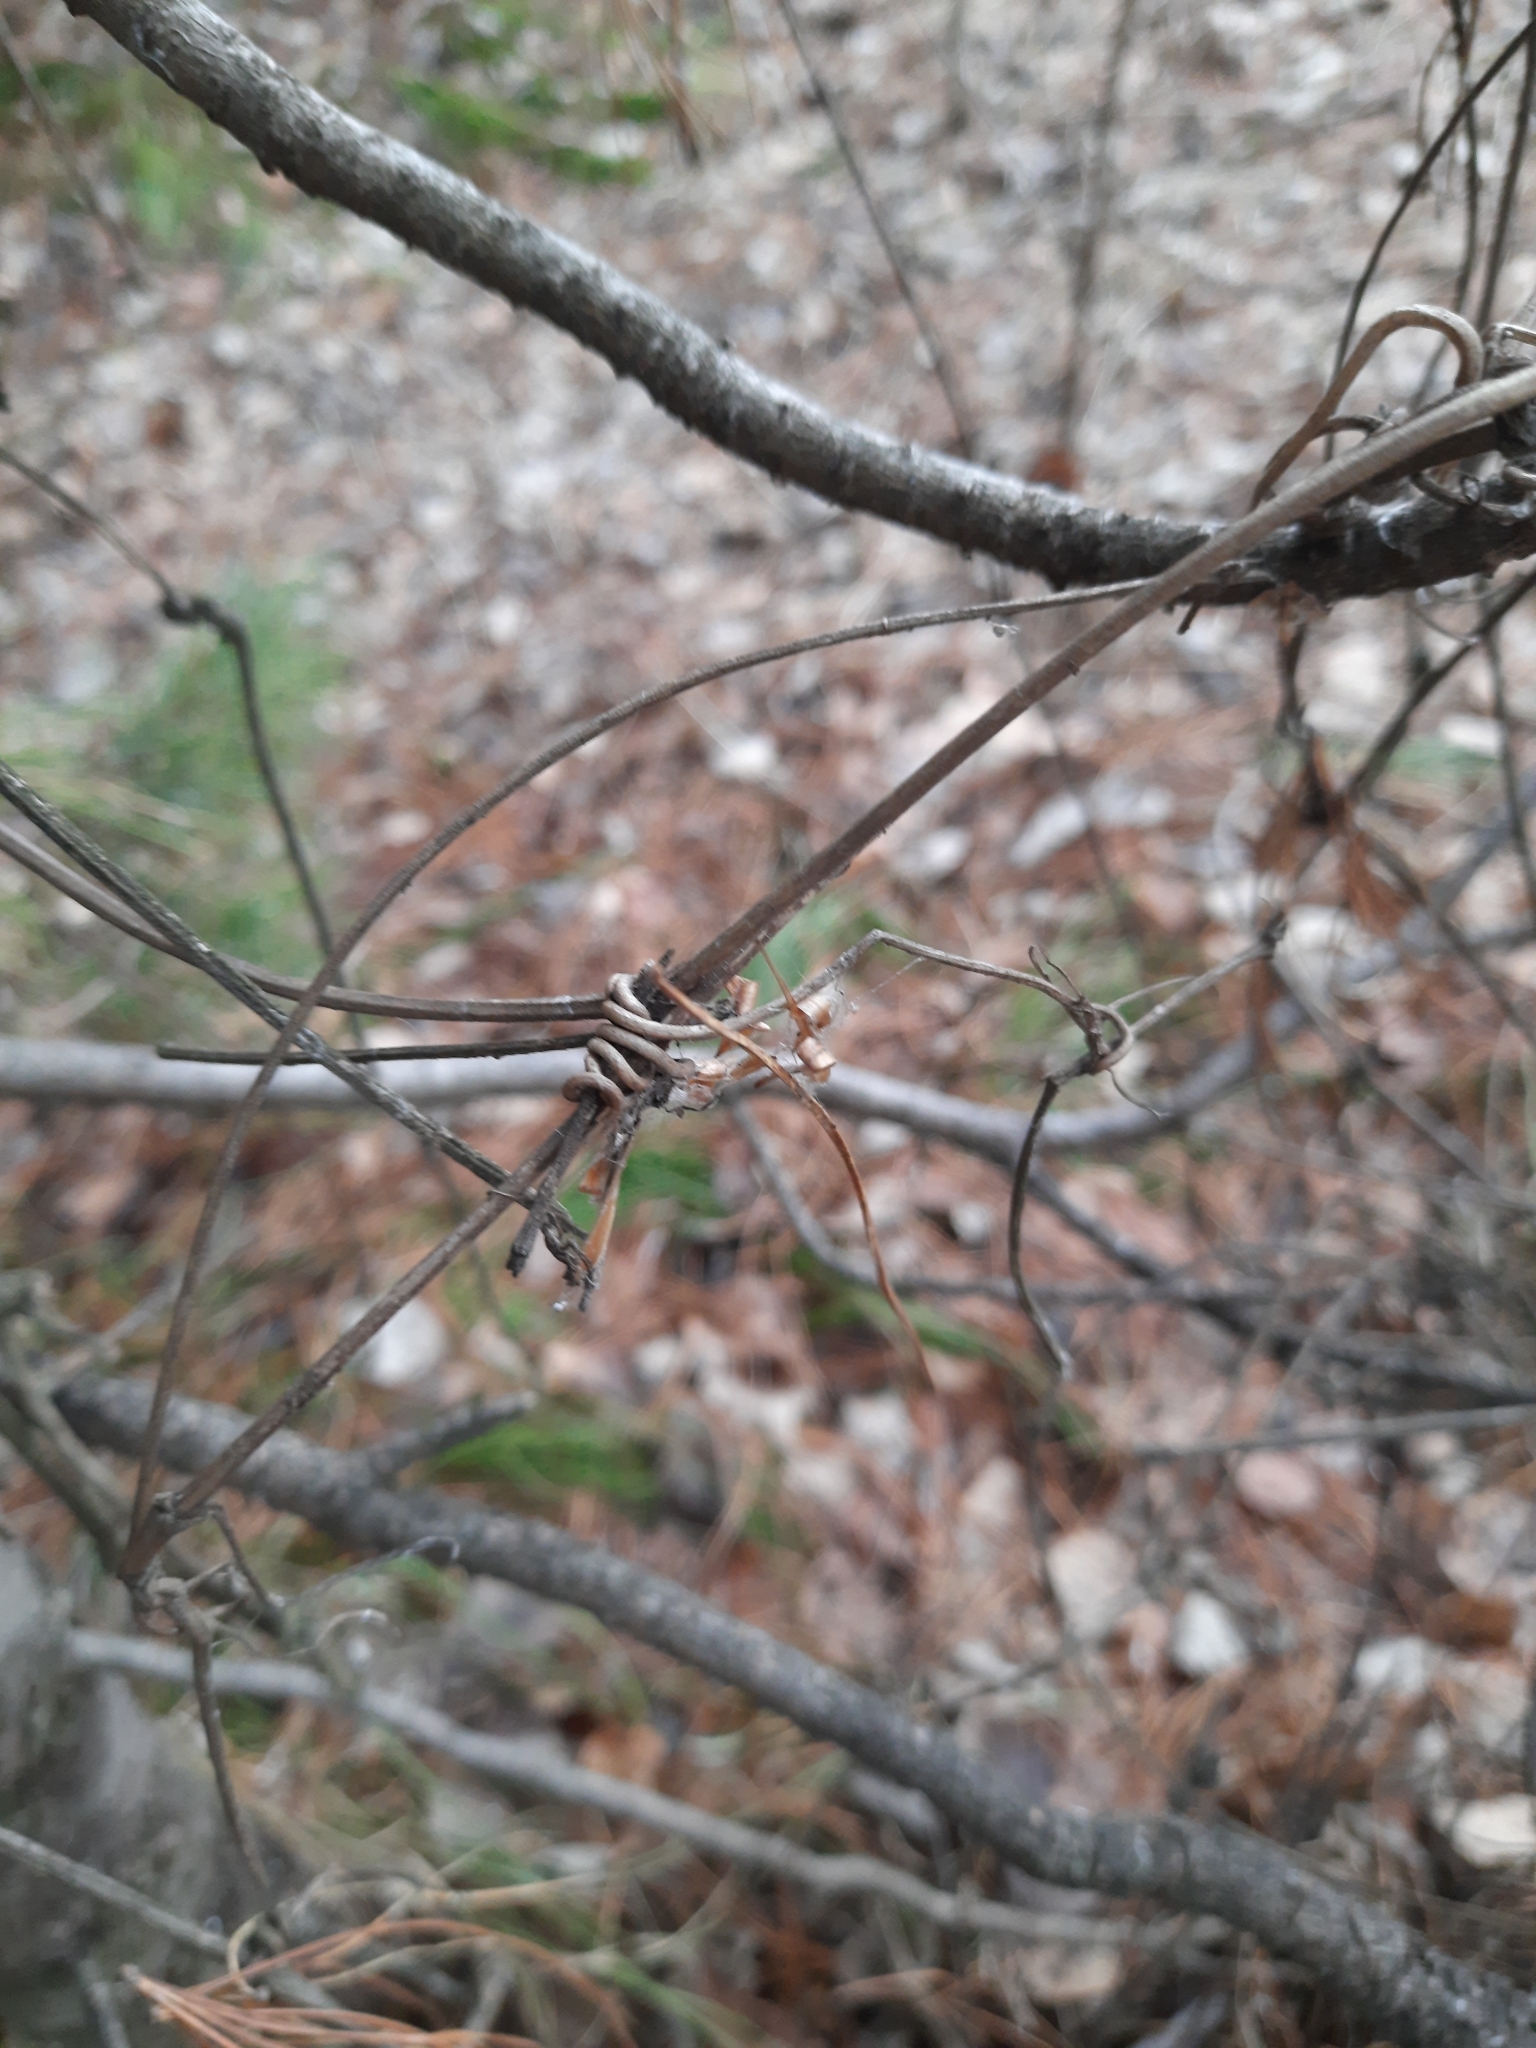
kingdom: Plantae
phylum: Tracheophyta
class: Magnoliopsida
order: Ranunculales
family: Ranunculaceae
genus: Clematis
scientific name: Clematis sibirica
